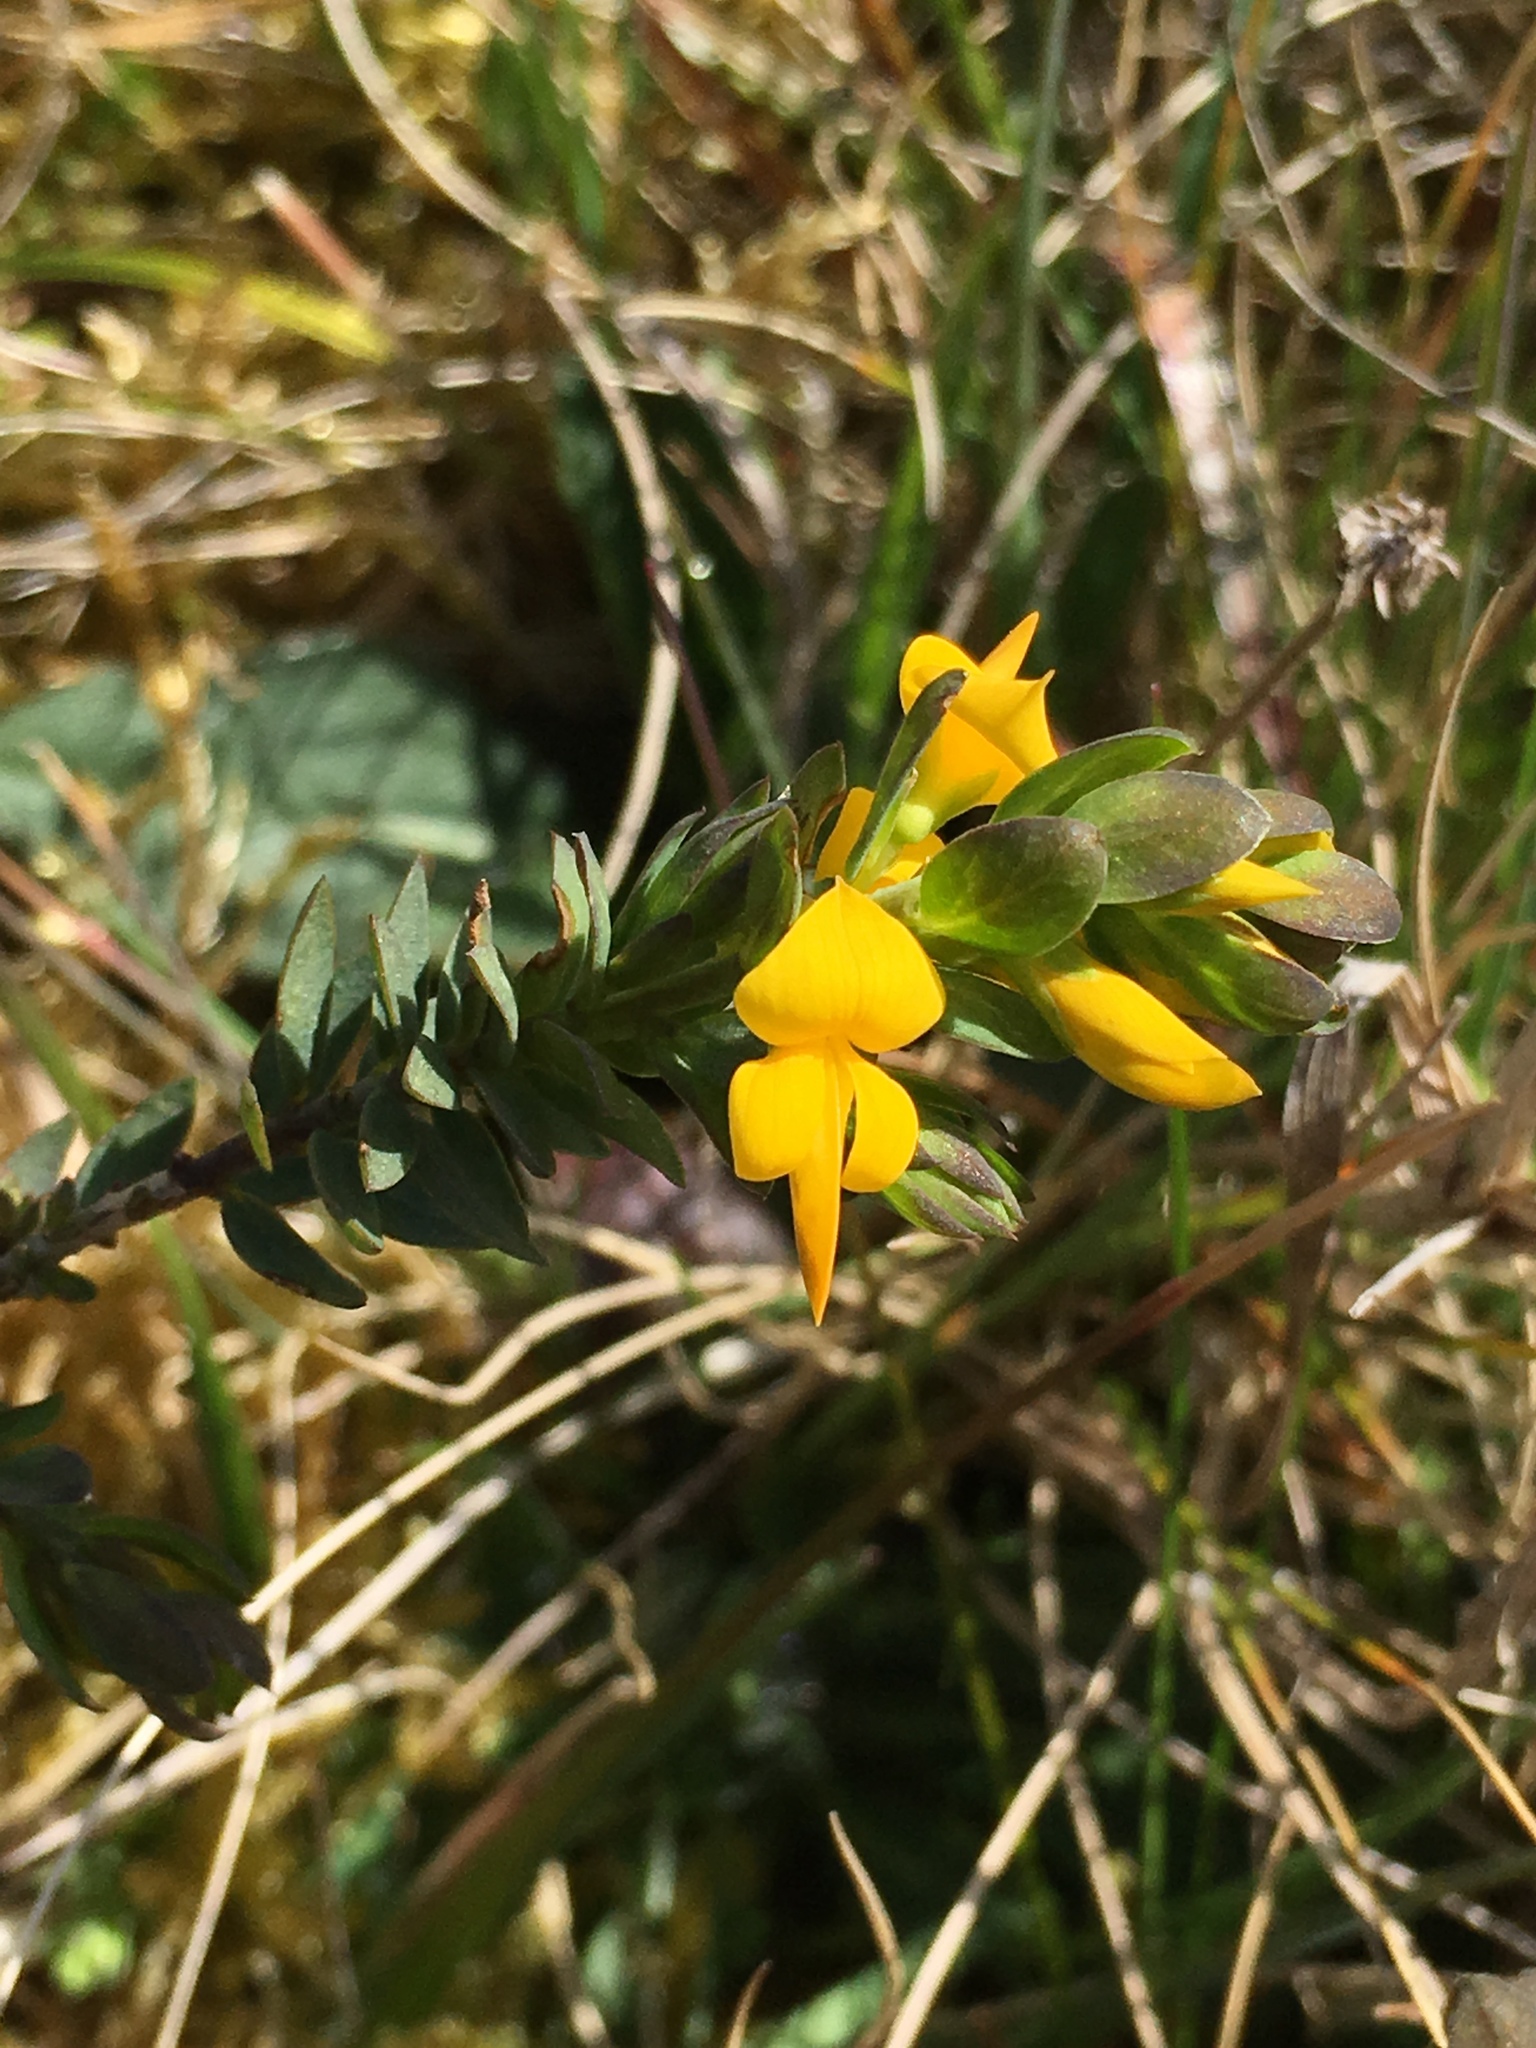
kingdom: Plantae
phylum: Tracheophyta
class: Magnoliopsida
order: Fabales
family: Fabaceae
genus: Genista
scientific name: Genista anglica
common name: Petty whin
